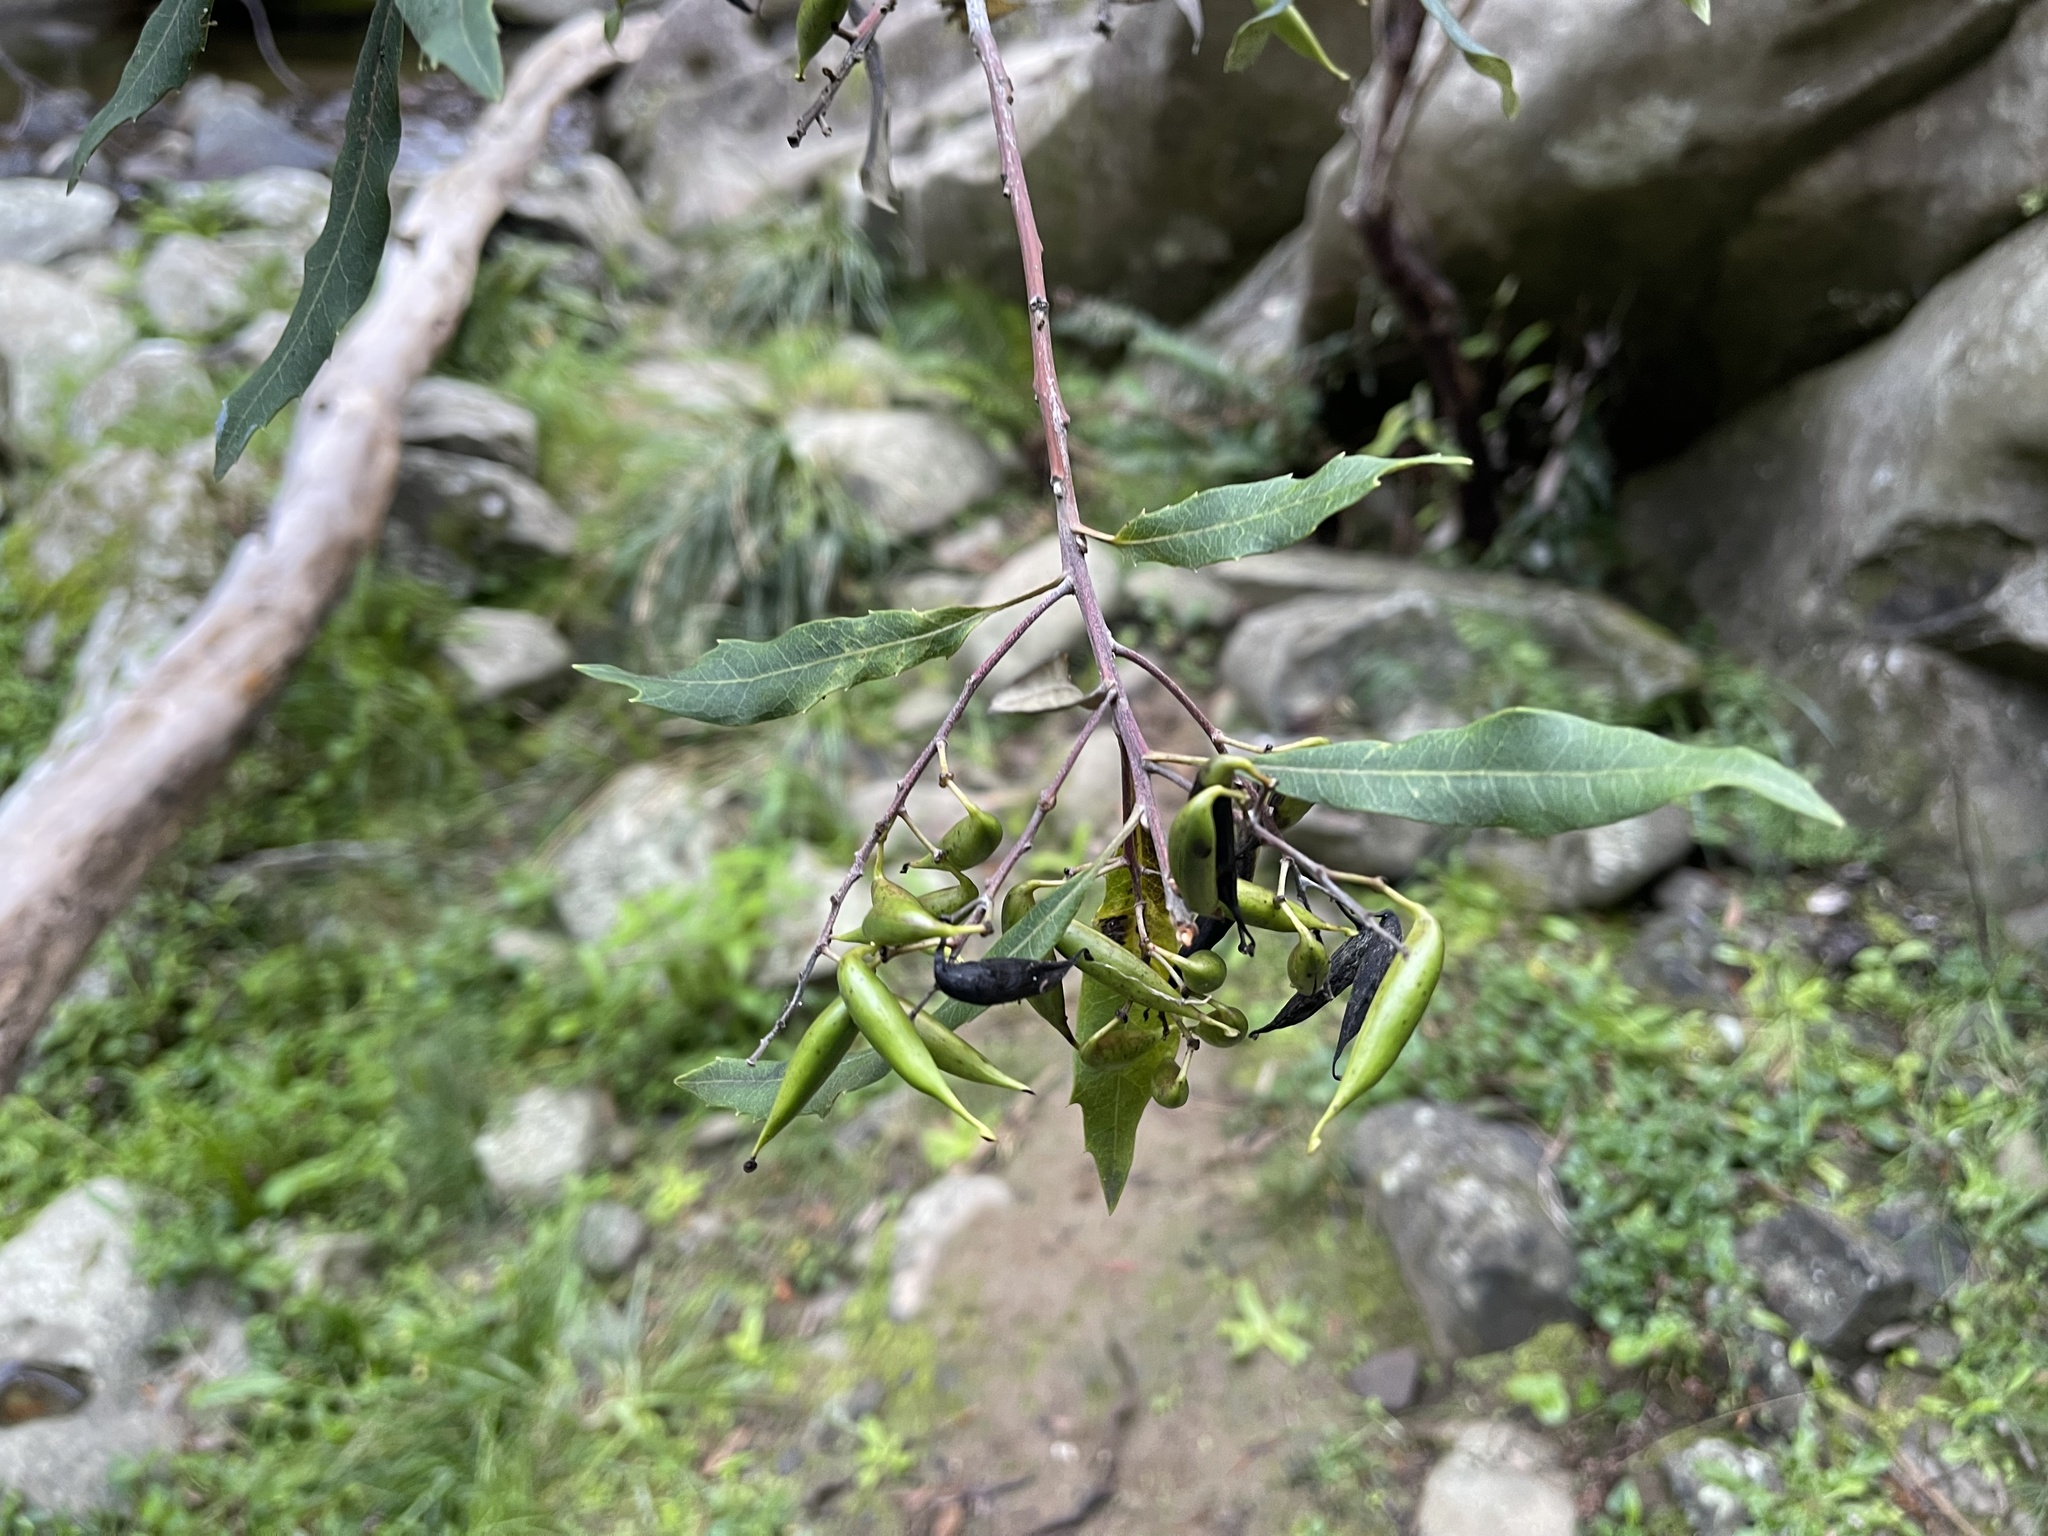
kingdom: Plantae
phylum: Tracheophyta
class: Magnoliopsida
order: Proteales
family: Proteaceae
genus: Lomatia
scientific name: Lomatia fraseri
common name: Forest lomatia
